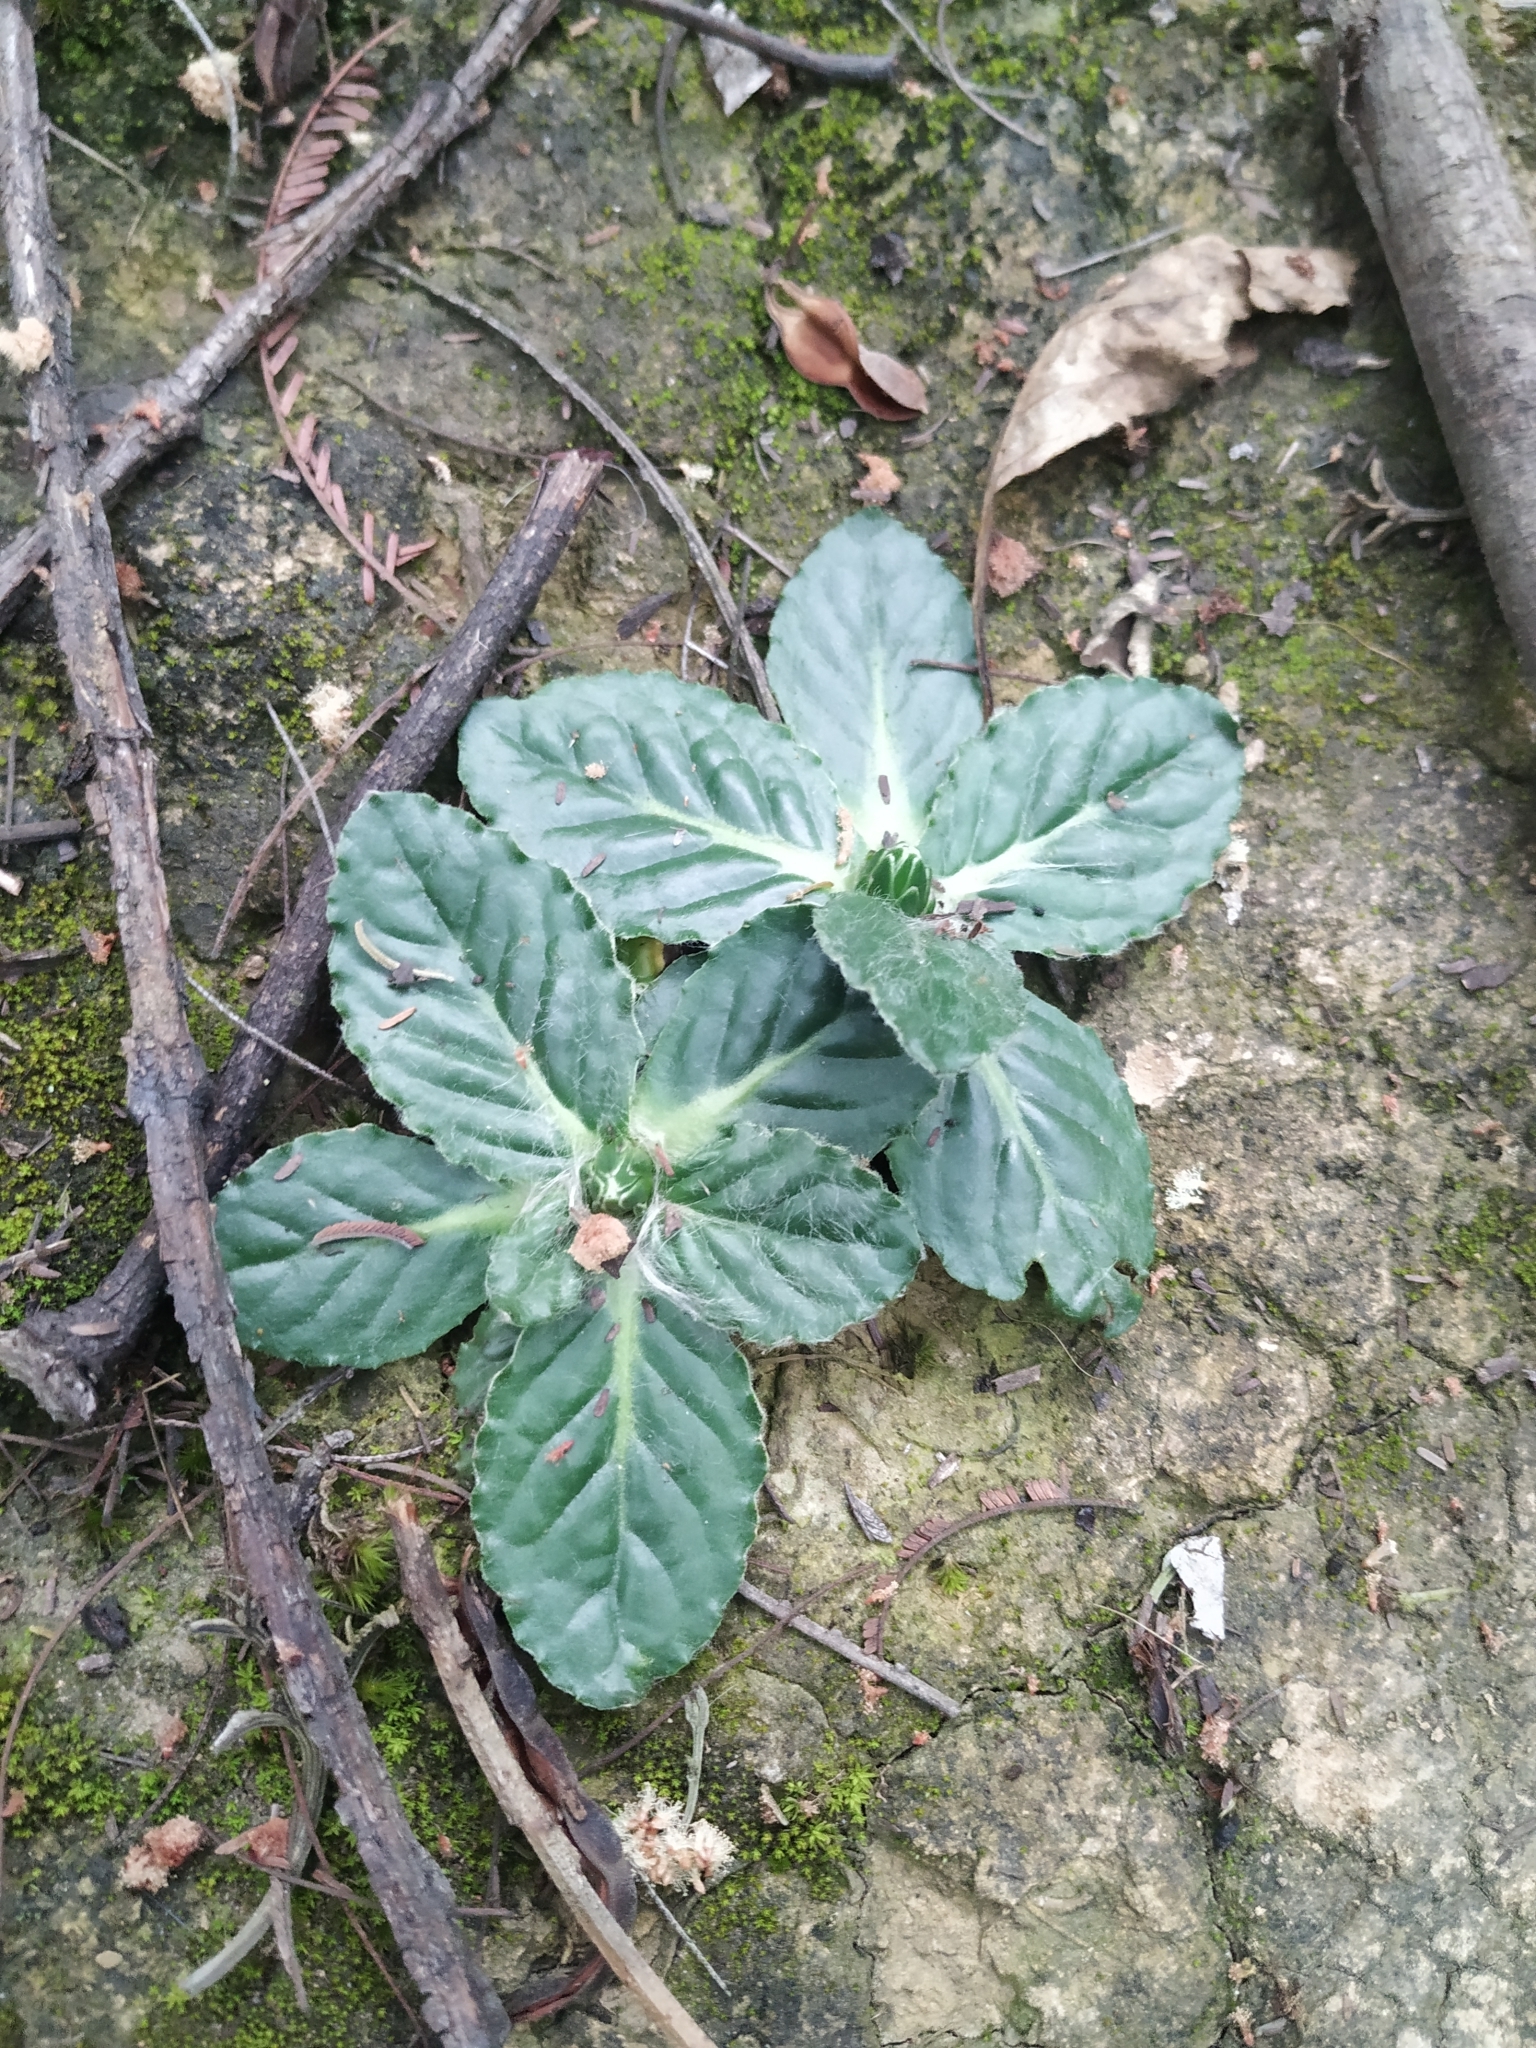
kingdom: Plantae
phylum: Tracheophyta
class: Magnoliopsida
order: Asterales
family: Asteraceae
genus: Chaptalia
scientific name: Chaptalia exscapa
